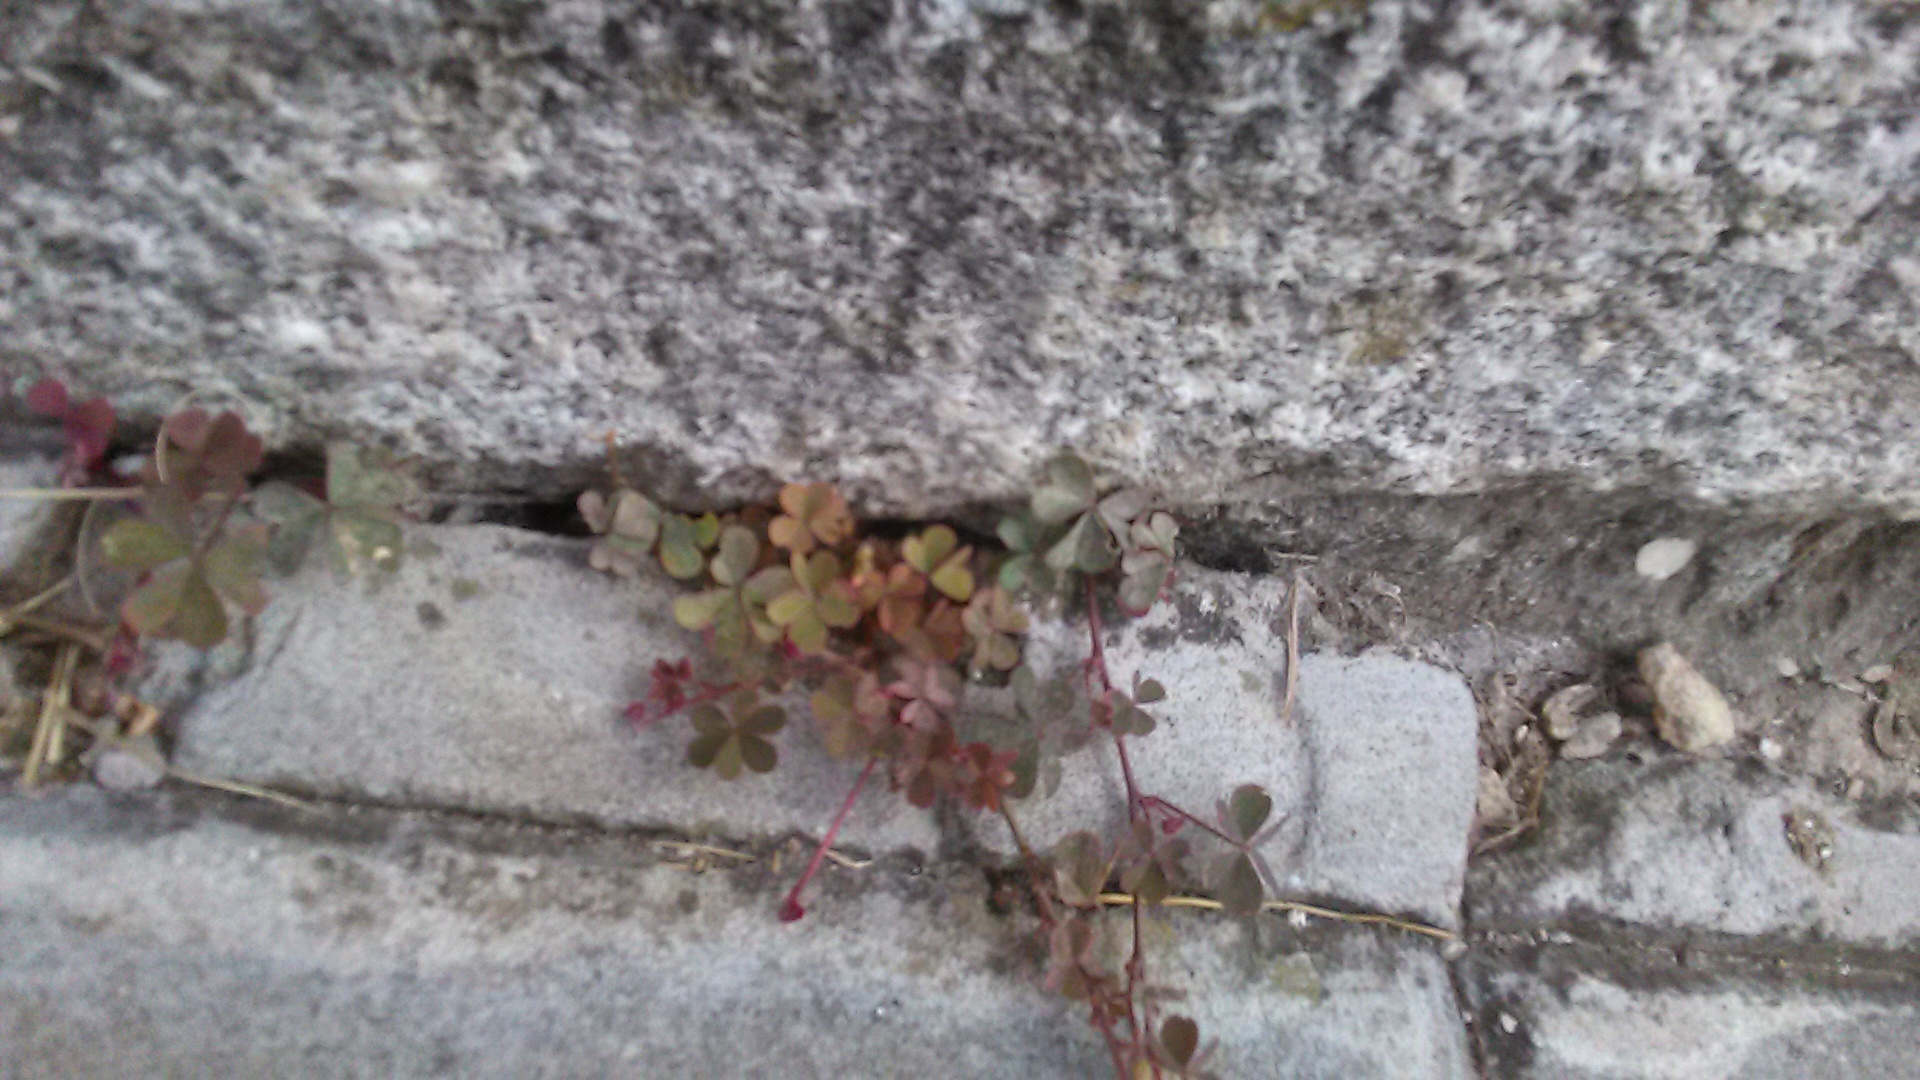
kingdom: Plantae
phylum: Tracheophyta
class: Magnoliopsida
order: Oxalidales
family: Oxalidaceae
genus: Oxalis
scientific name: Oxalis corniculata
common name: Procumbent yellow-sorrel
